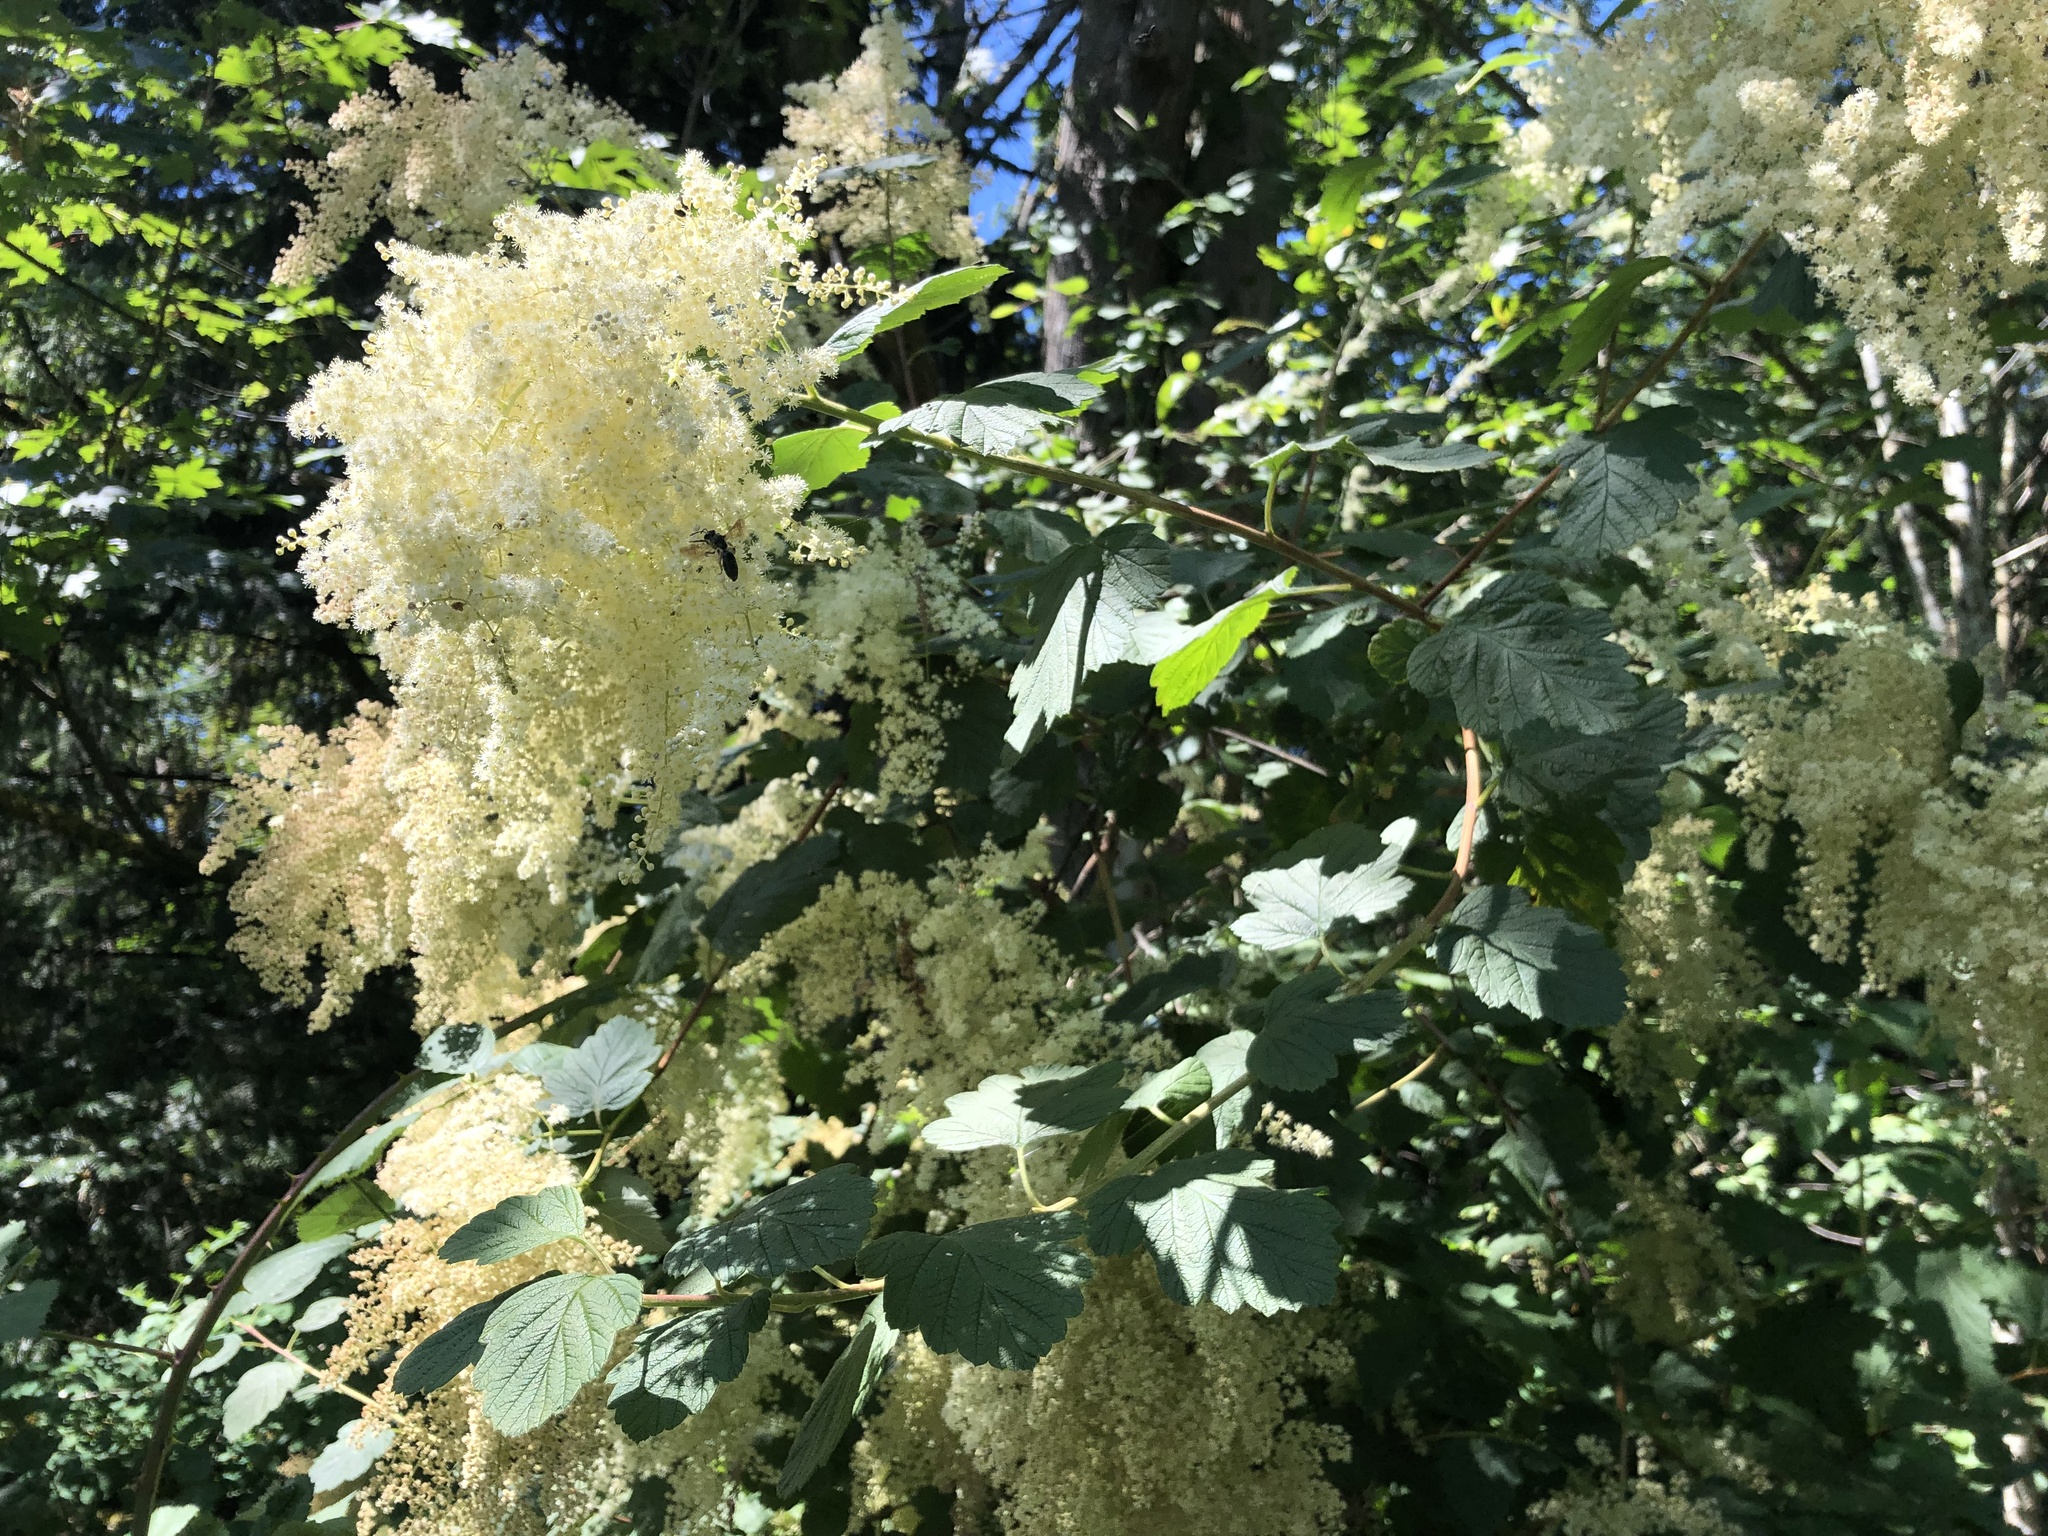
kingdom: Plantae
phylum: Tracheophyta
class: Magnoliopsida
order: Rosales
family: Rosaceae
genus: Holodiscus
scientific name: Holodiscus discolor
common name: Oceanspray
